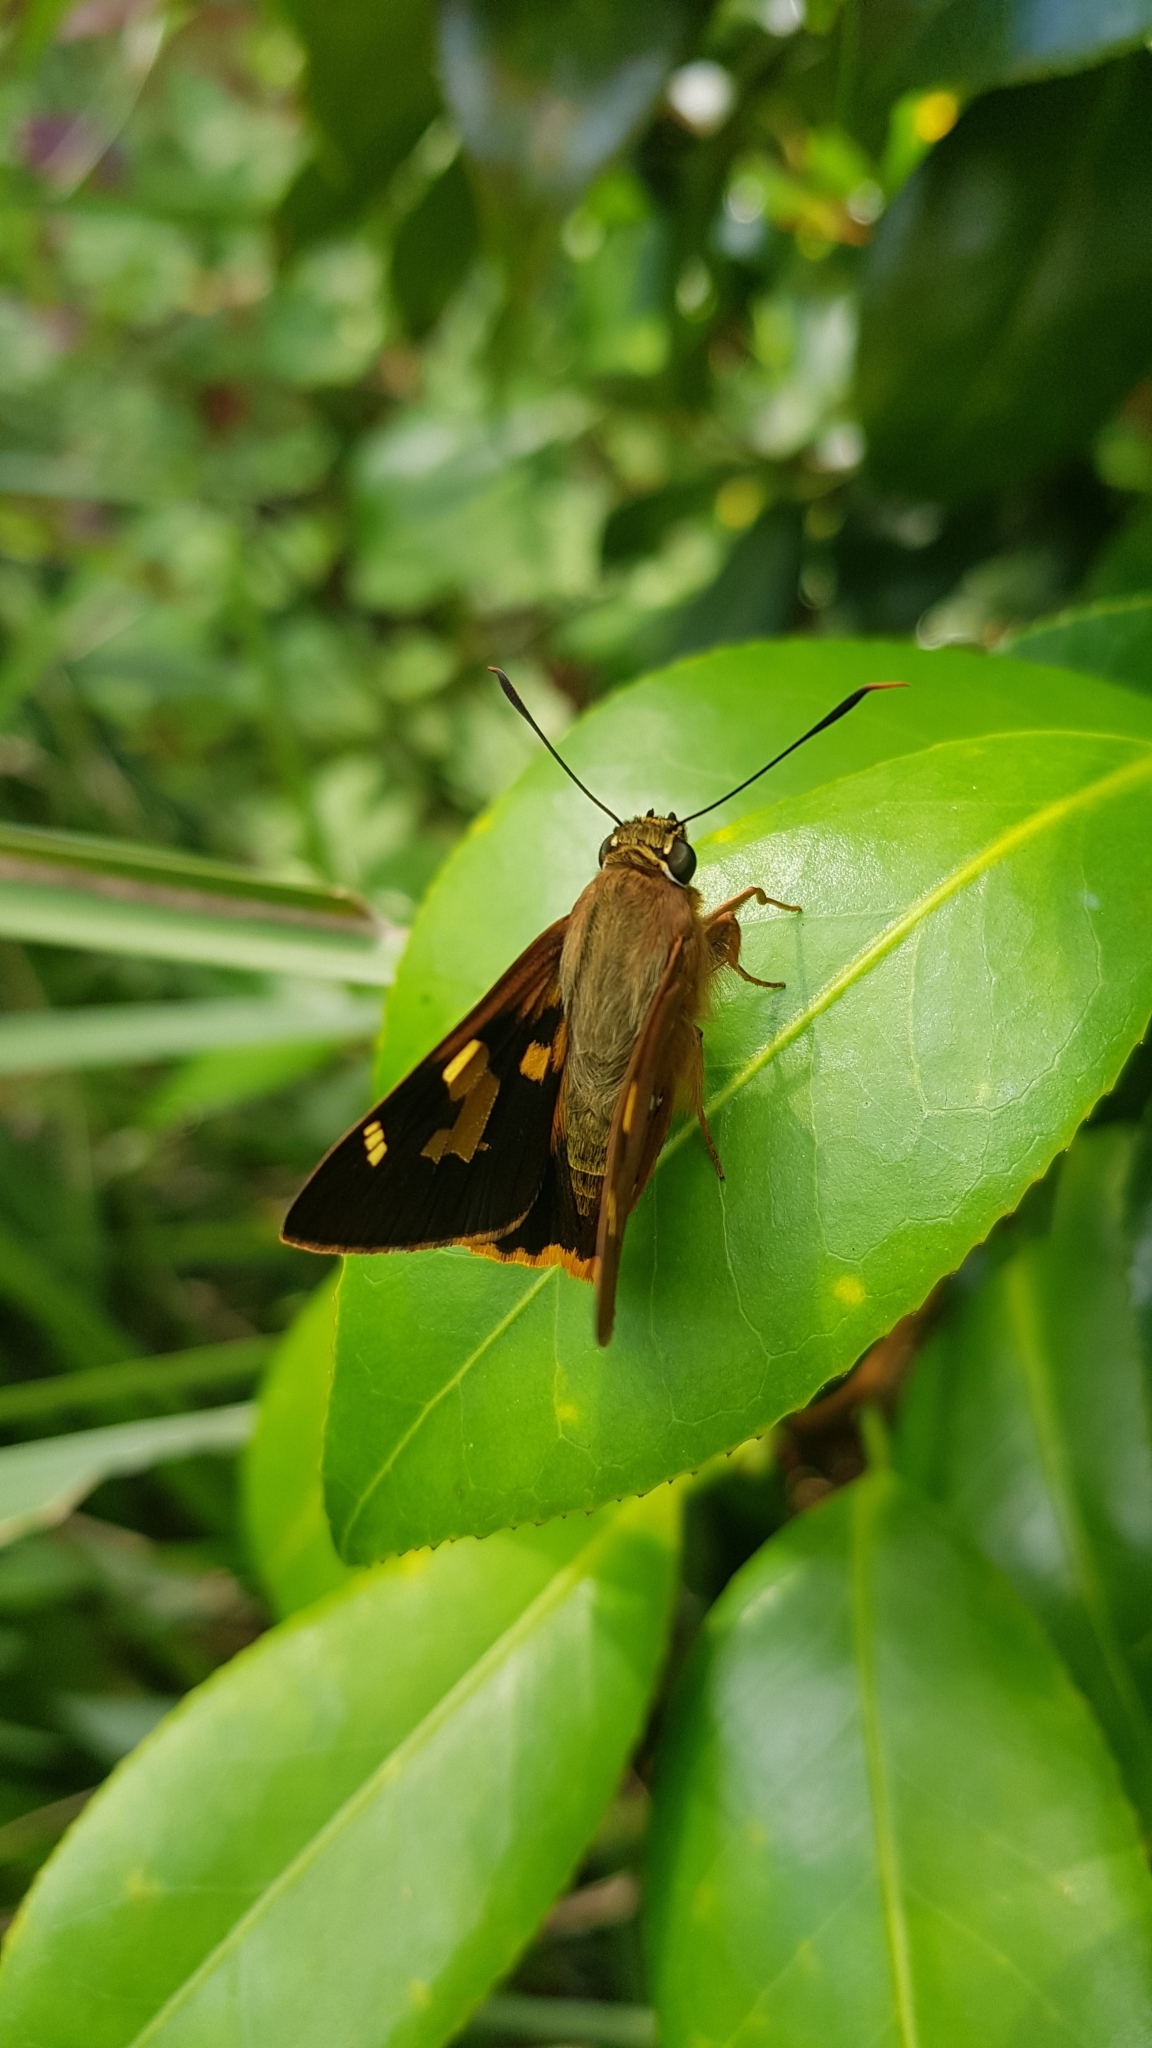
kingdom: Animalia
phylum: Arthropoda
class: Insecta
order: Lepidoptera
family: Hesperiidae
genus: Trapezites
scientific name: Trapezites symmomus
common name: Splendid ochre
